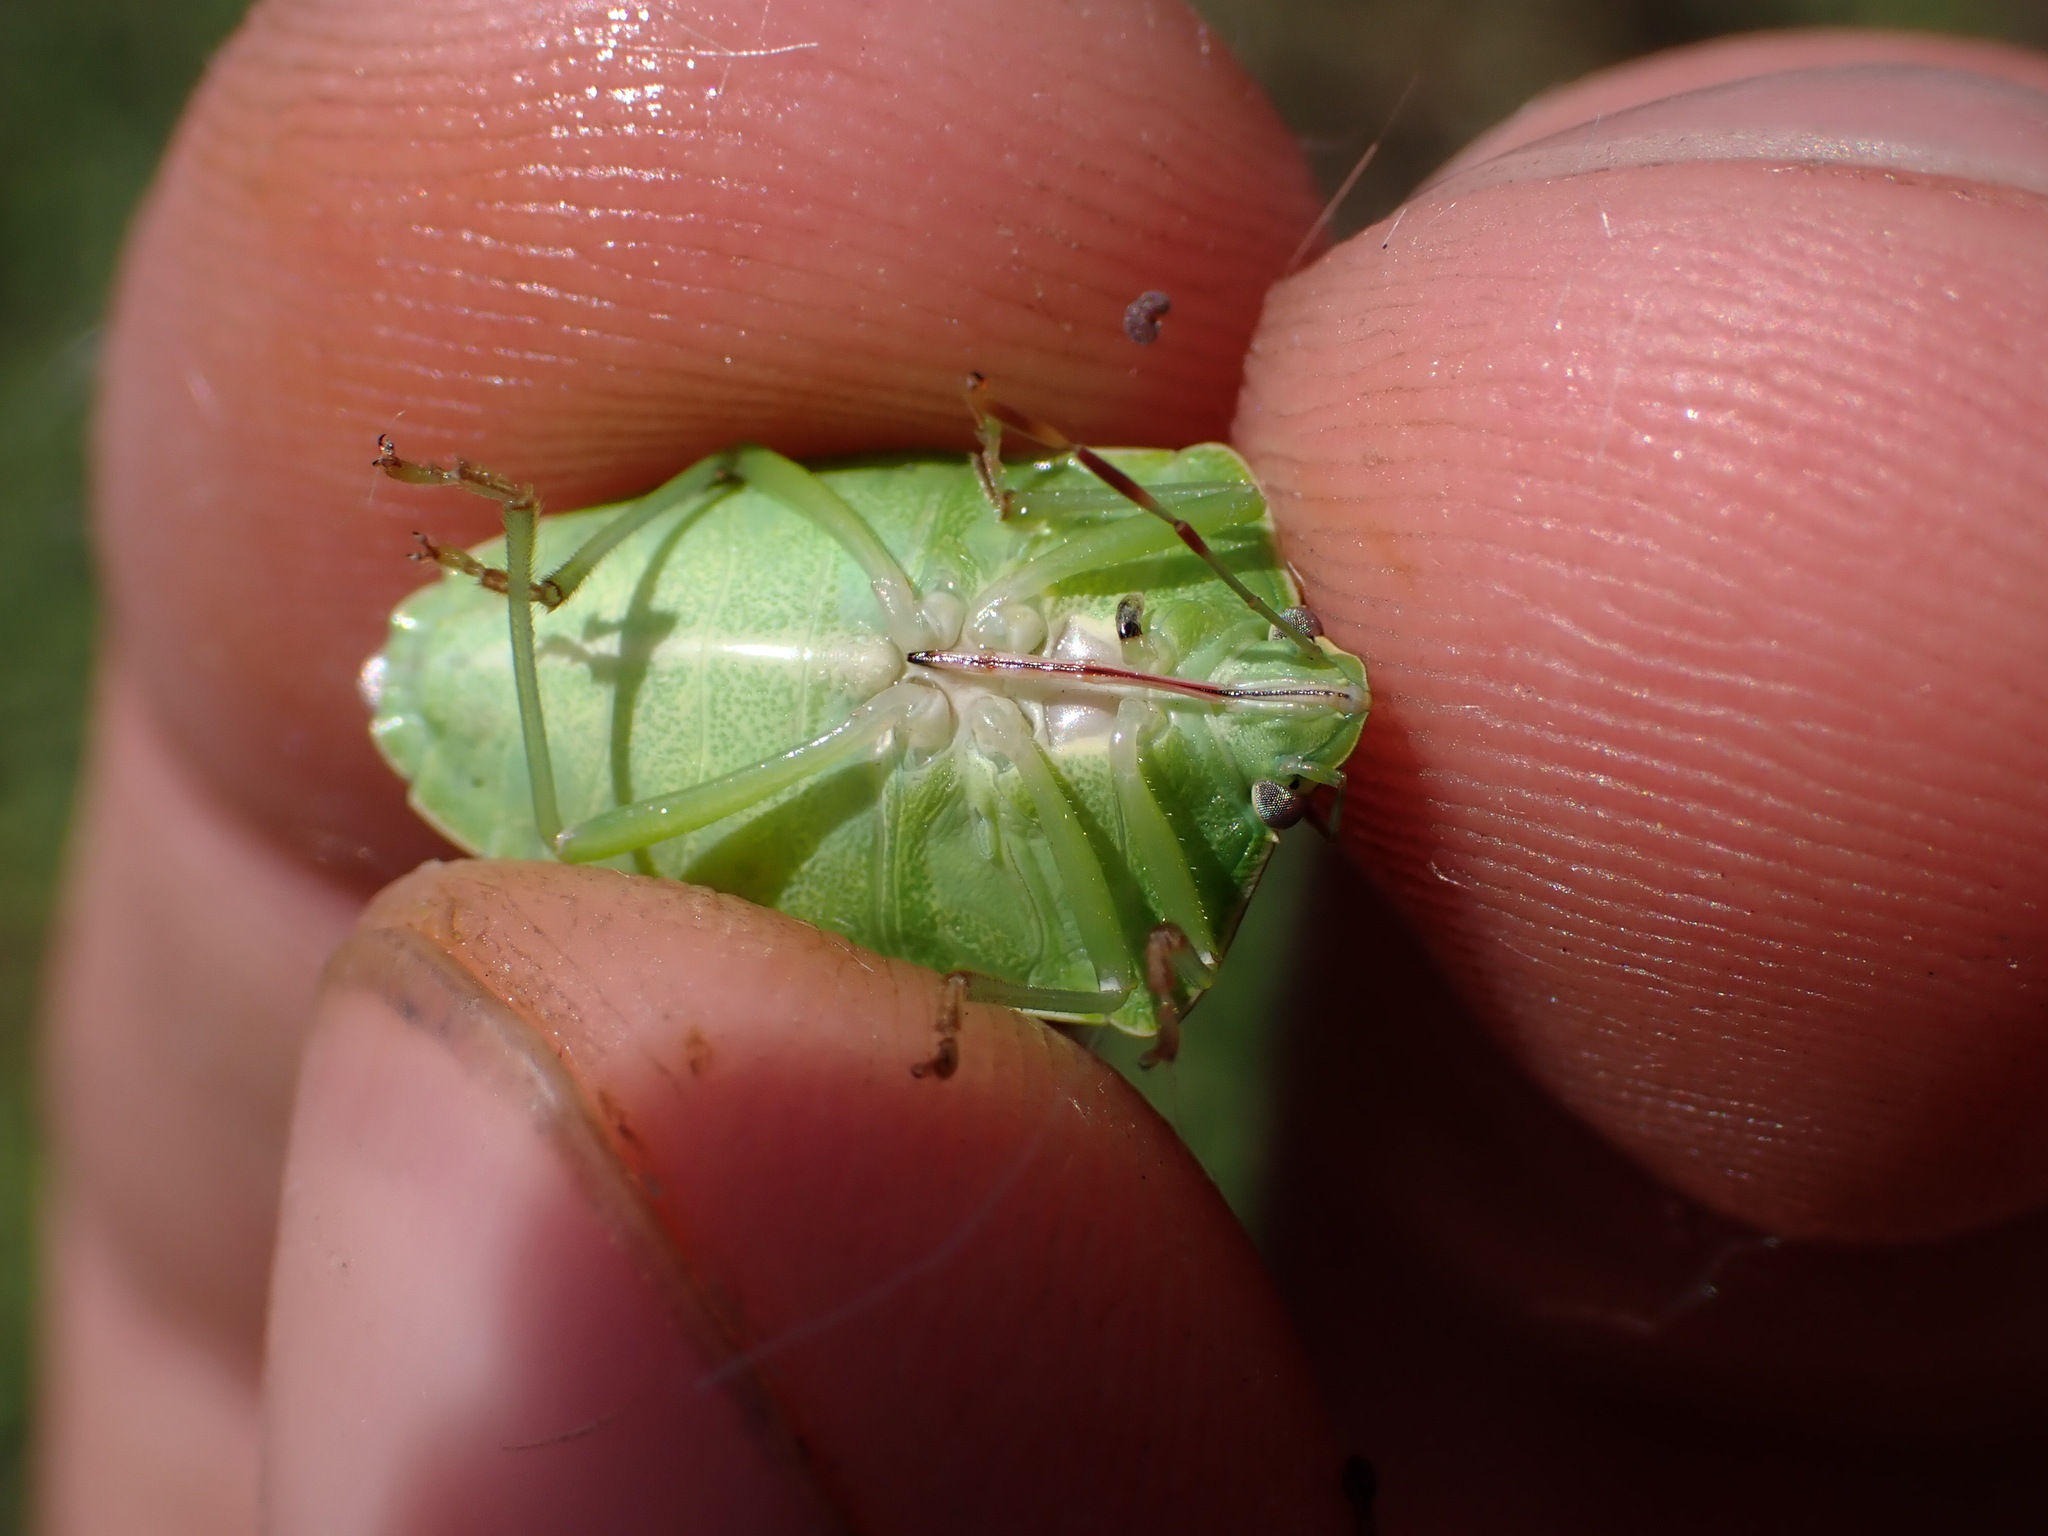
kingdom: Animalia
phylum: Arthropoda
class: Insecta
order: Hemiptera
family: Pentatomidae
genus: Nezara
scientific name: Nezara viridula
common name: Southern green stink bug
